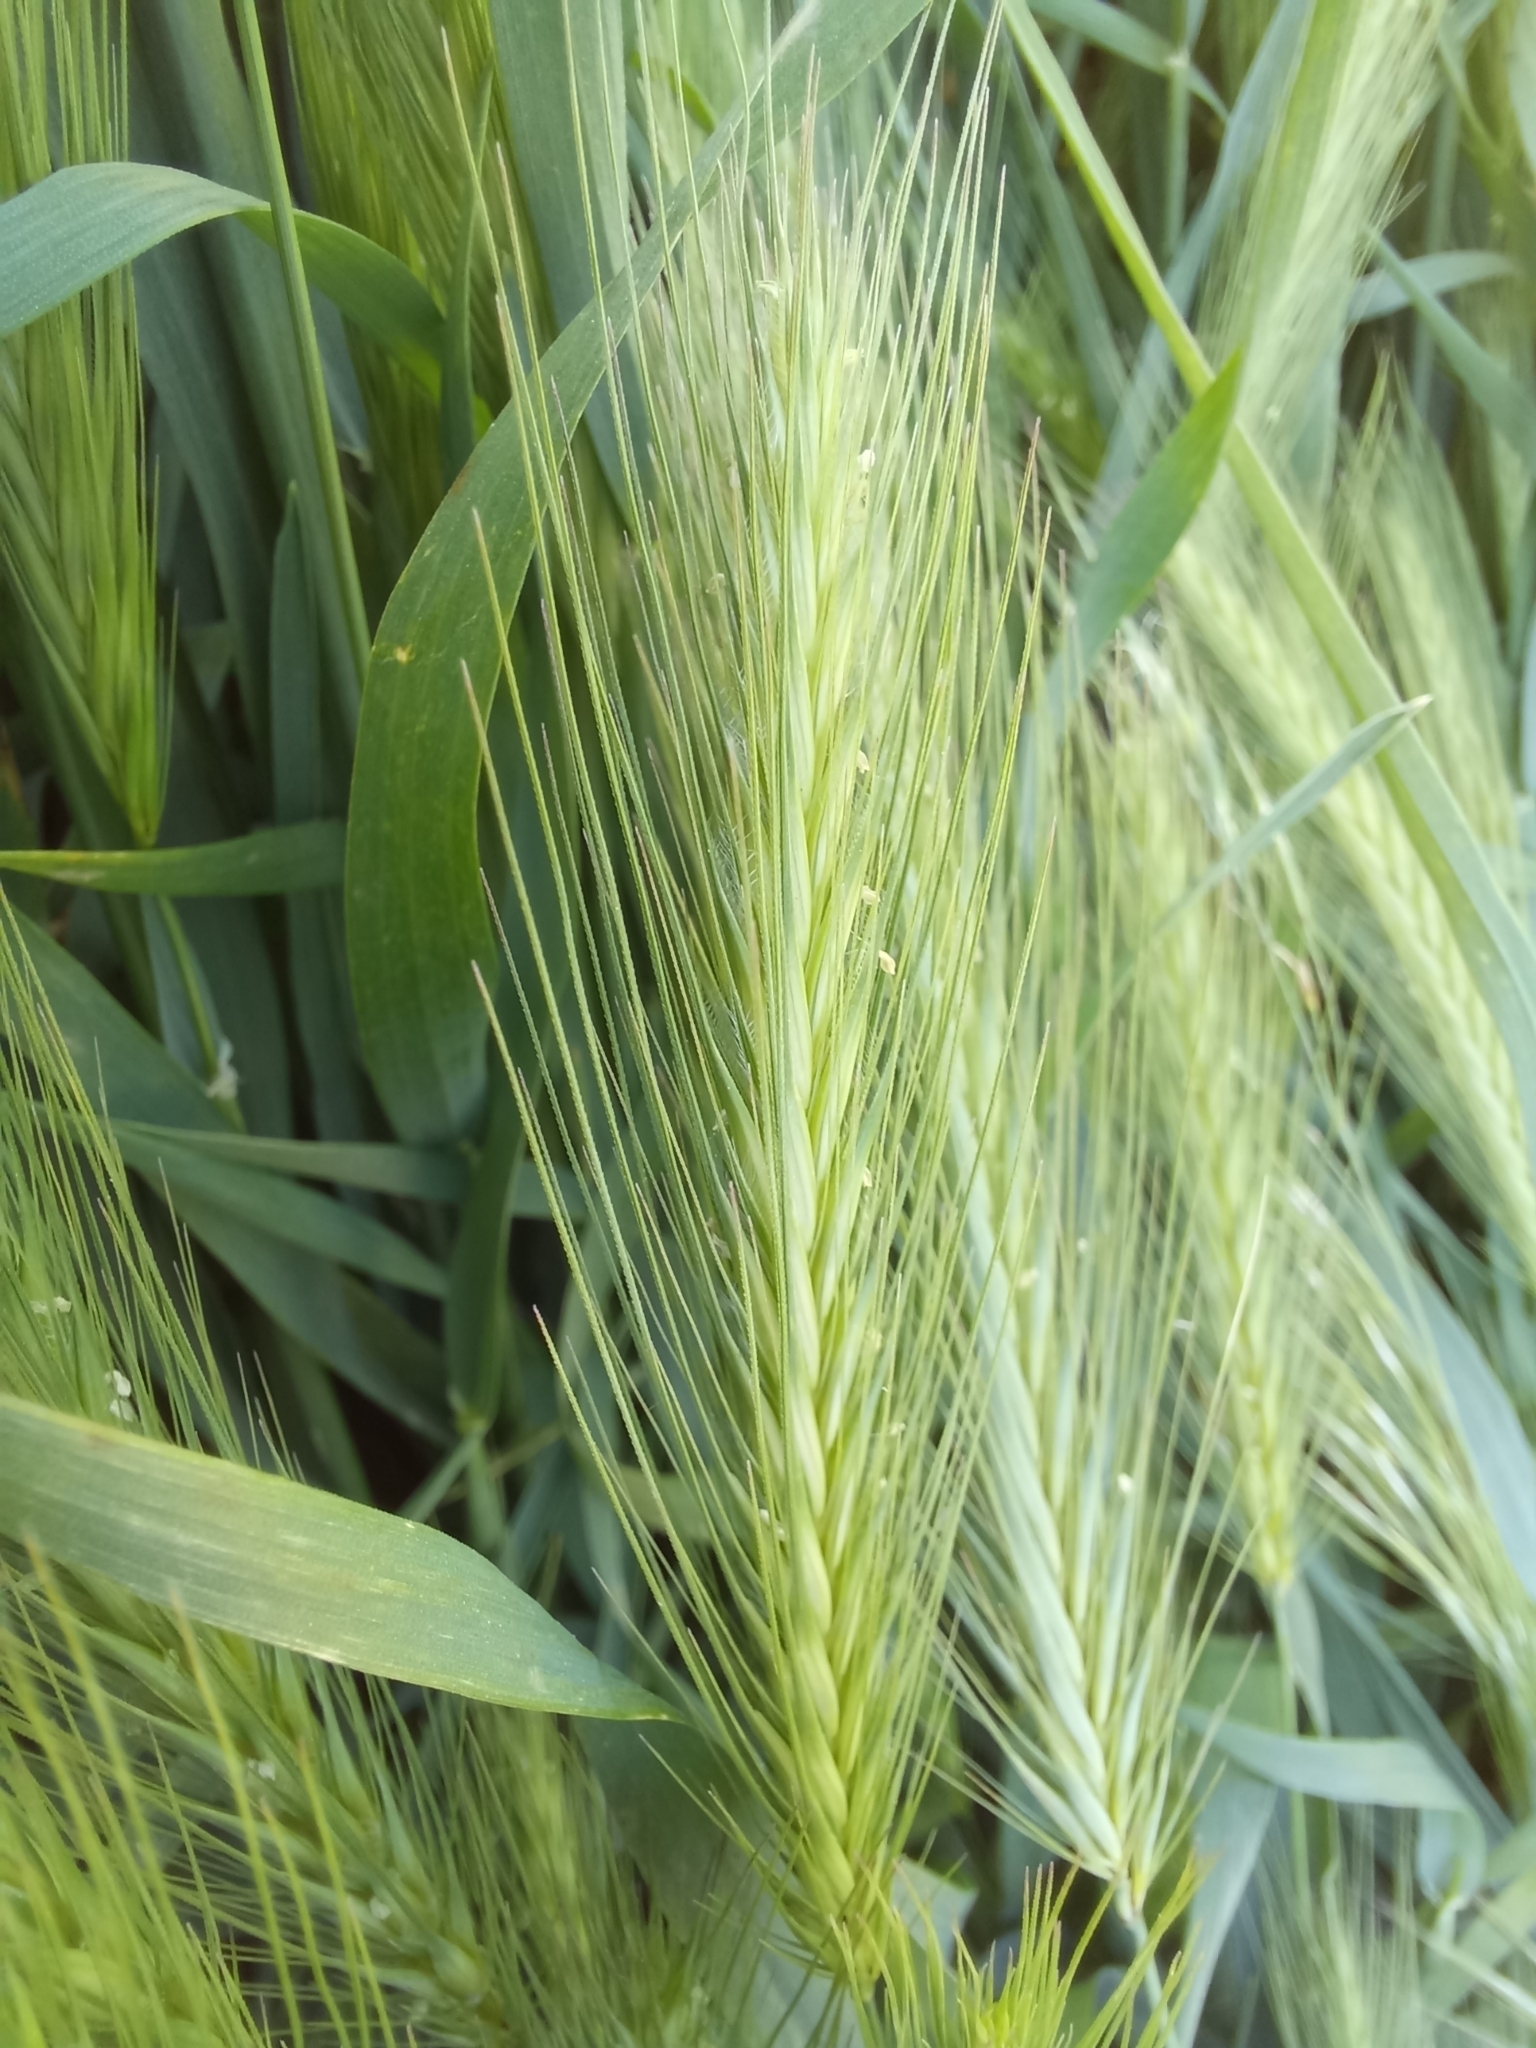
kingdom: Plantae
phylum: Tracheophyta
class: Liliopsida
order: Poales
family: Poaceae
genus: Hordeum
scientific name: Hordeum murinum
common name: Wall barley
